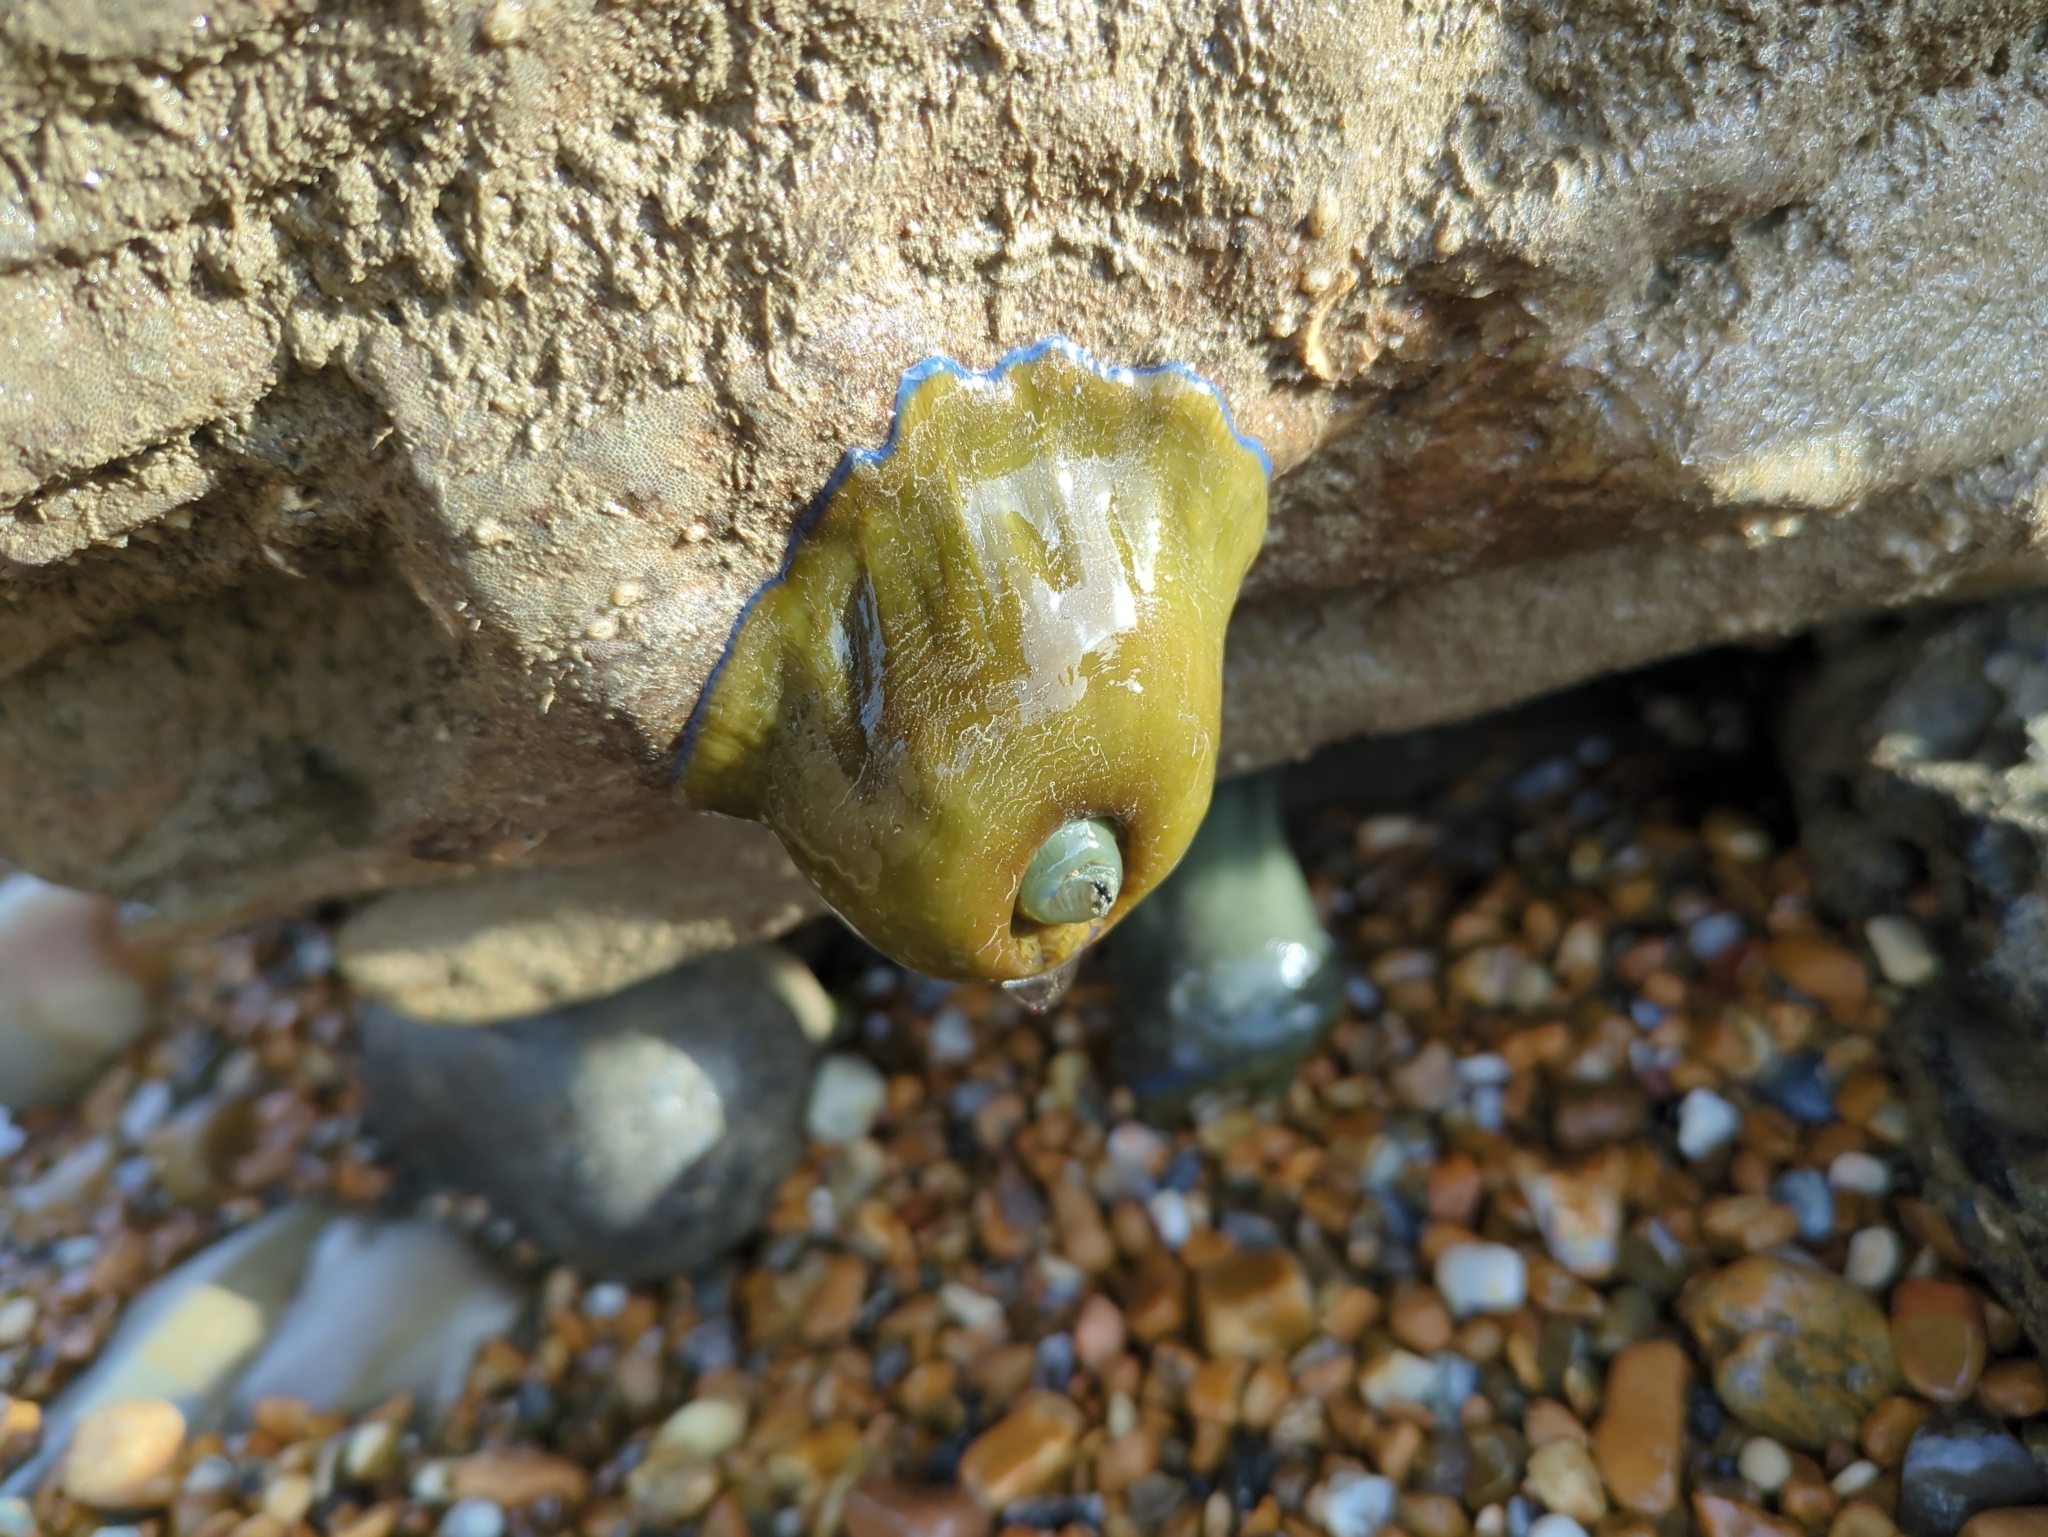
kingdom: Animalia
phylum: Cnidaria
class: Anthozoa
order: Actiniaria
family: Actiniidae
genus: Actinia
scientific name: Actinia equina
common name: Beadlet anemone
